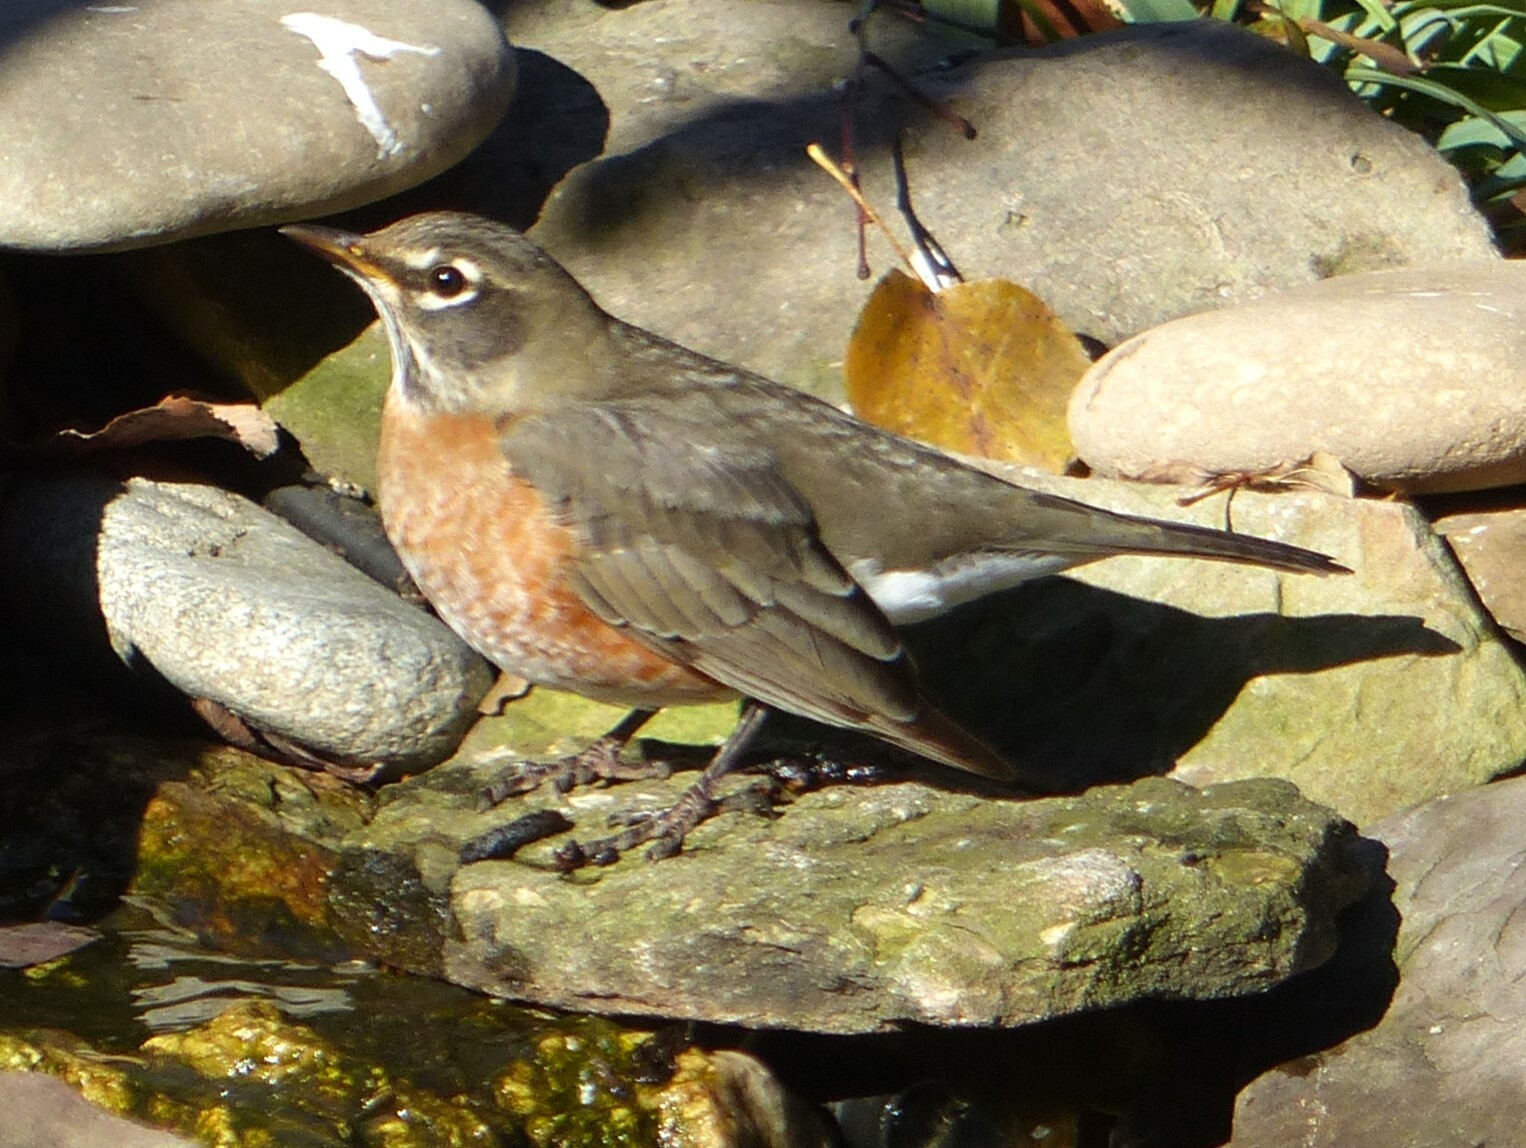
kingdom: Animalia
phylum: Chordata
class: Aves
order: Passeriformes
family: Turdidae
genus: Turdus
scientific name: Turdus migratorius
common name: American robin
